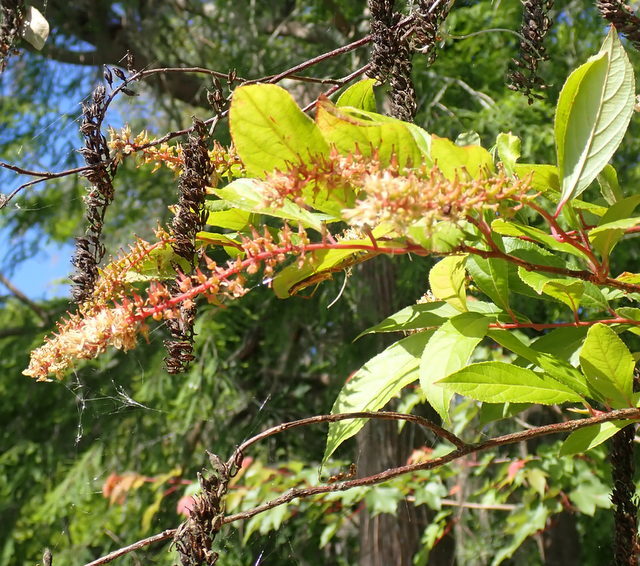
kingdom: Plantae
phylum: Tracheophyta
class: Magnoliopsida
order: Saxifragales
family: Iteaceae
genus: Itea
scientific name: Itea virginica
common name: Sweetspire
